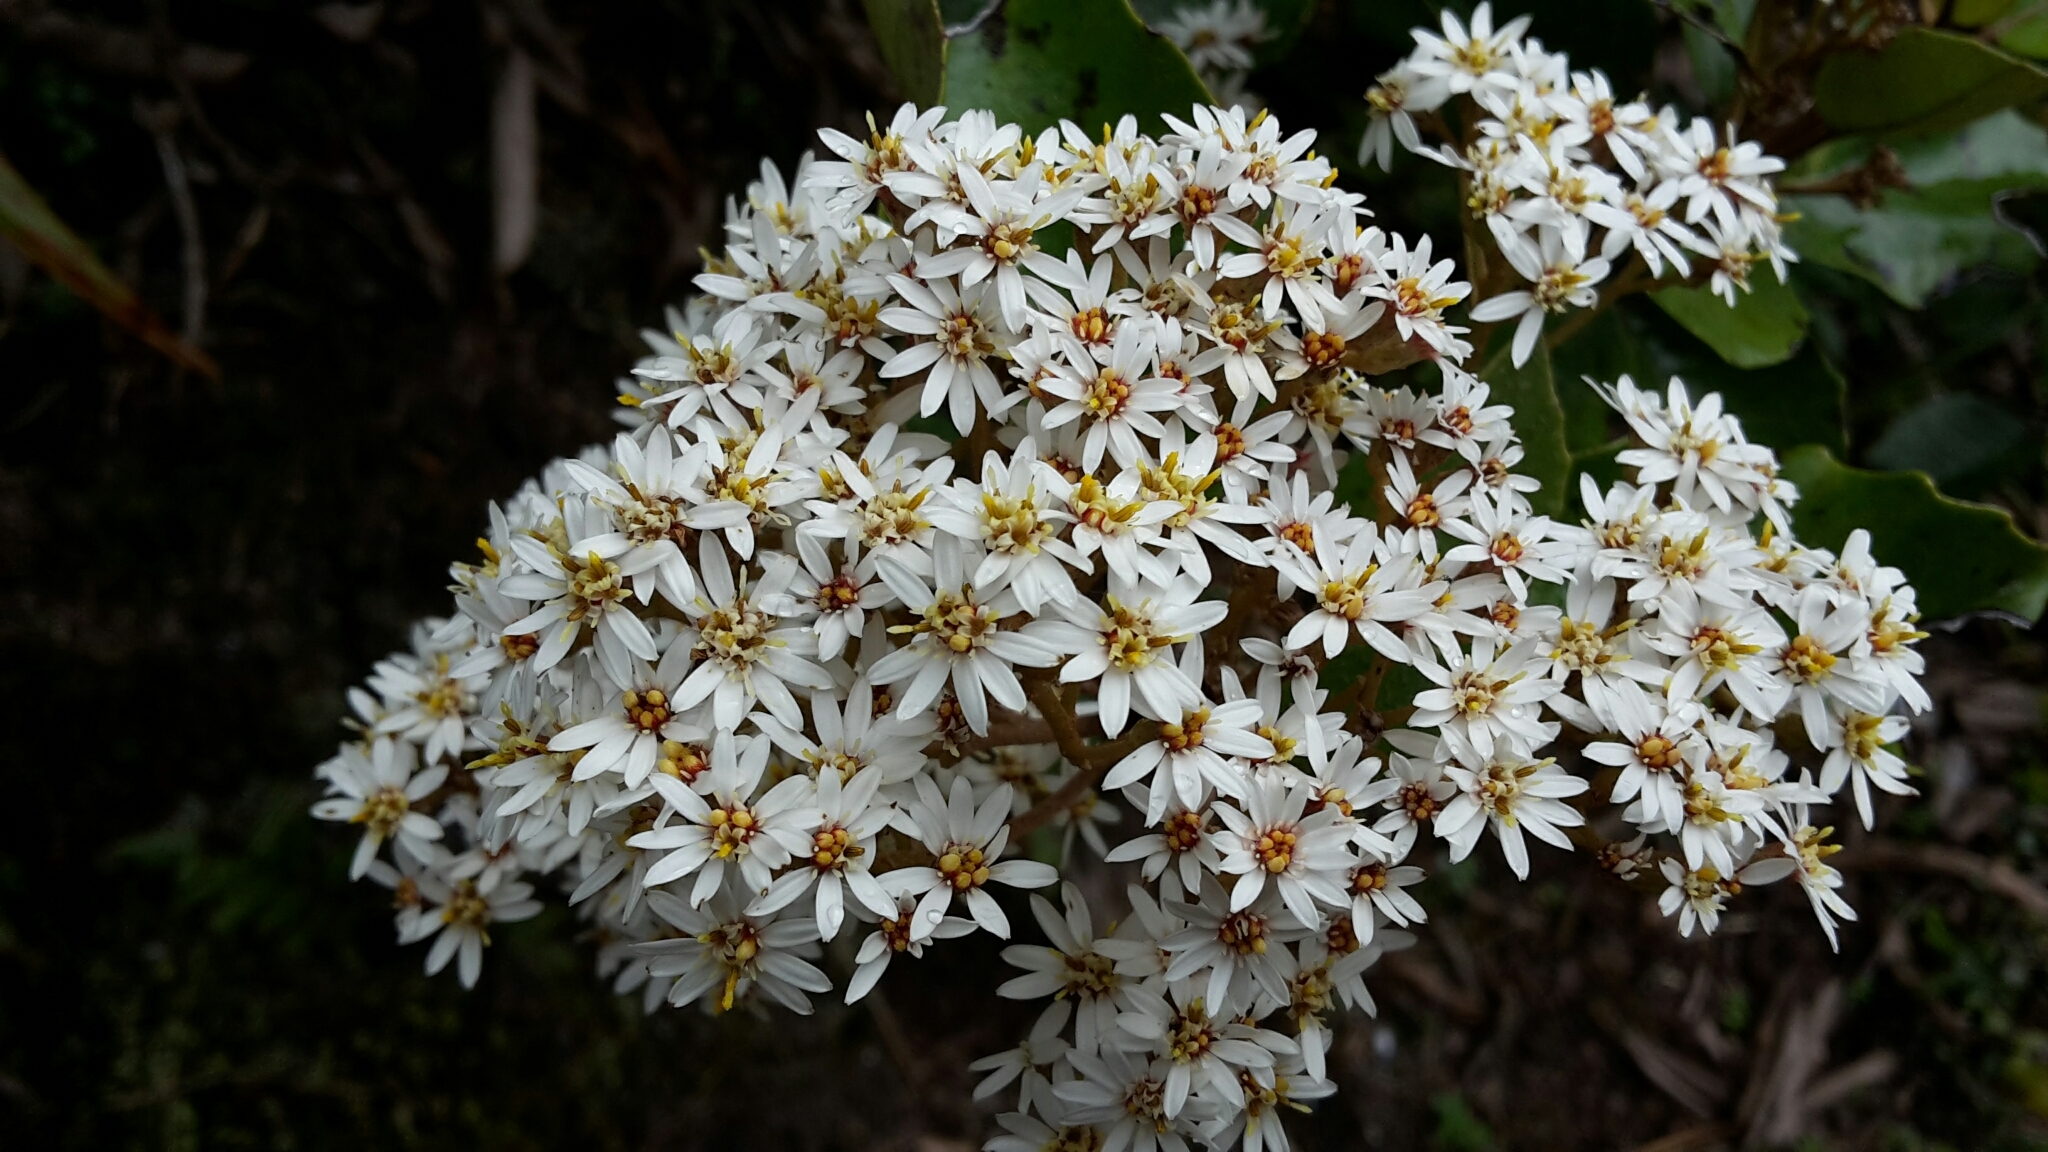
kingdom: Plantae
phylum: Tracheophyta
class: Magnoliopsida
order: Asterales
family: Asteraceae
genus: Olearia
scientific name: Olearia arborescens
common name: Glossy tree daisy
